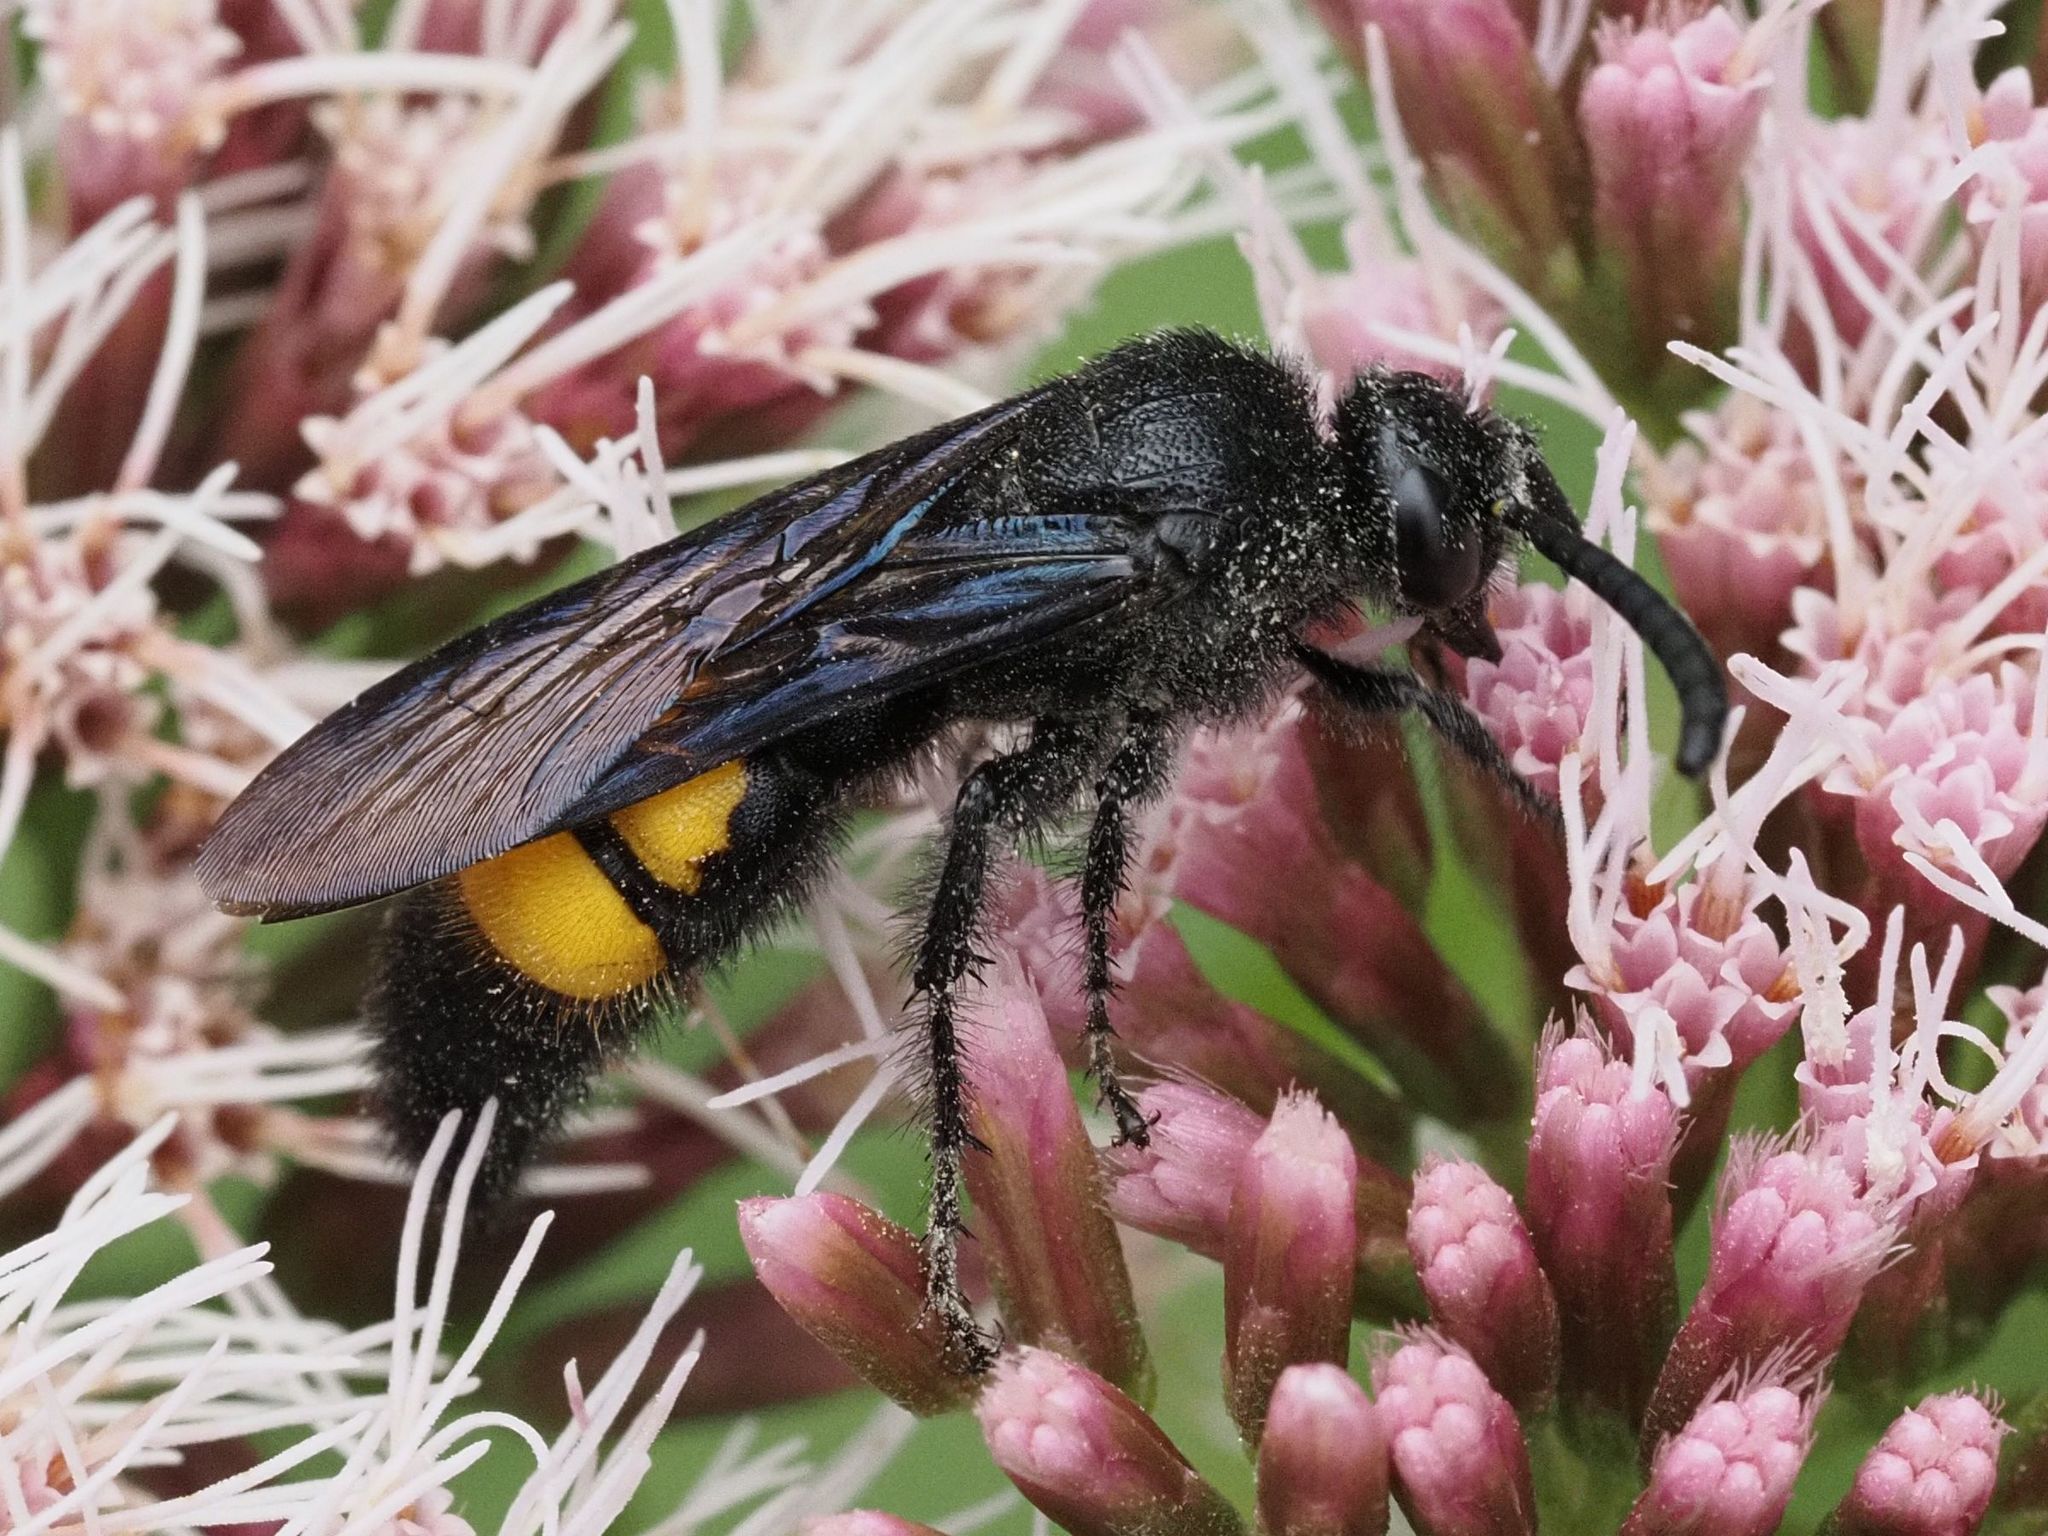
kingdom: Animalia
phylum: Arthropoda
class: Insecta
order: Hymenoptera
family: Scoliidae
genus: Scolia
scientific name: Scolia hirta
